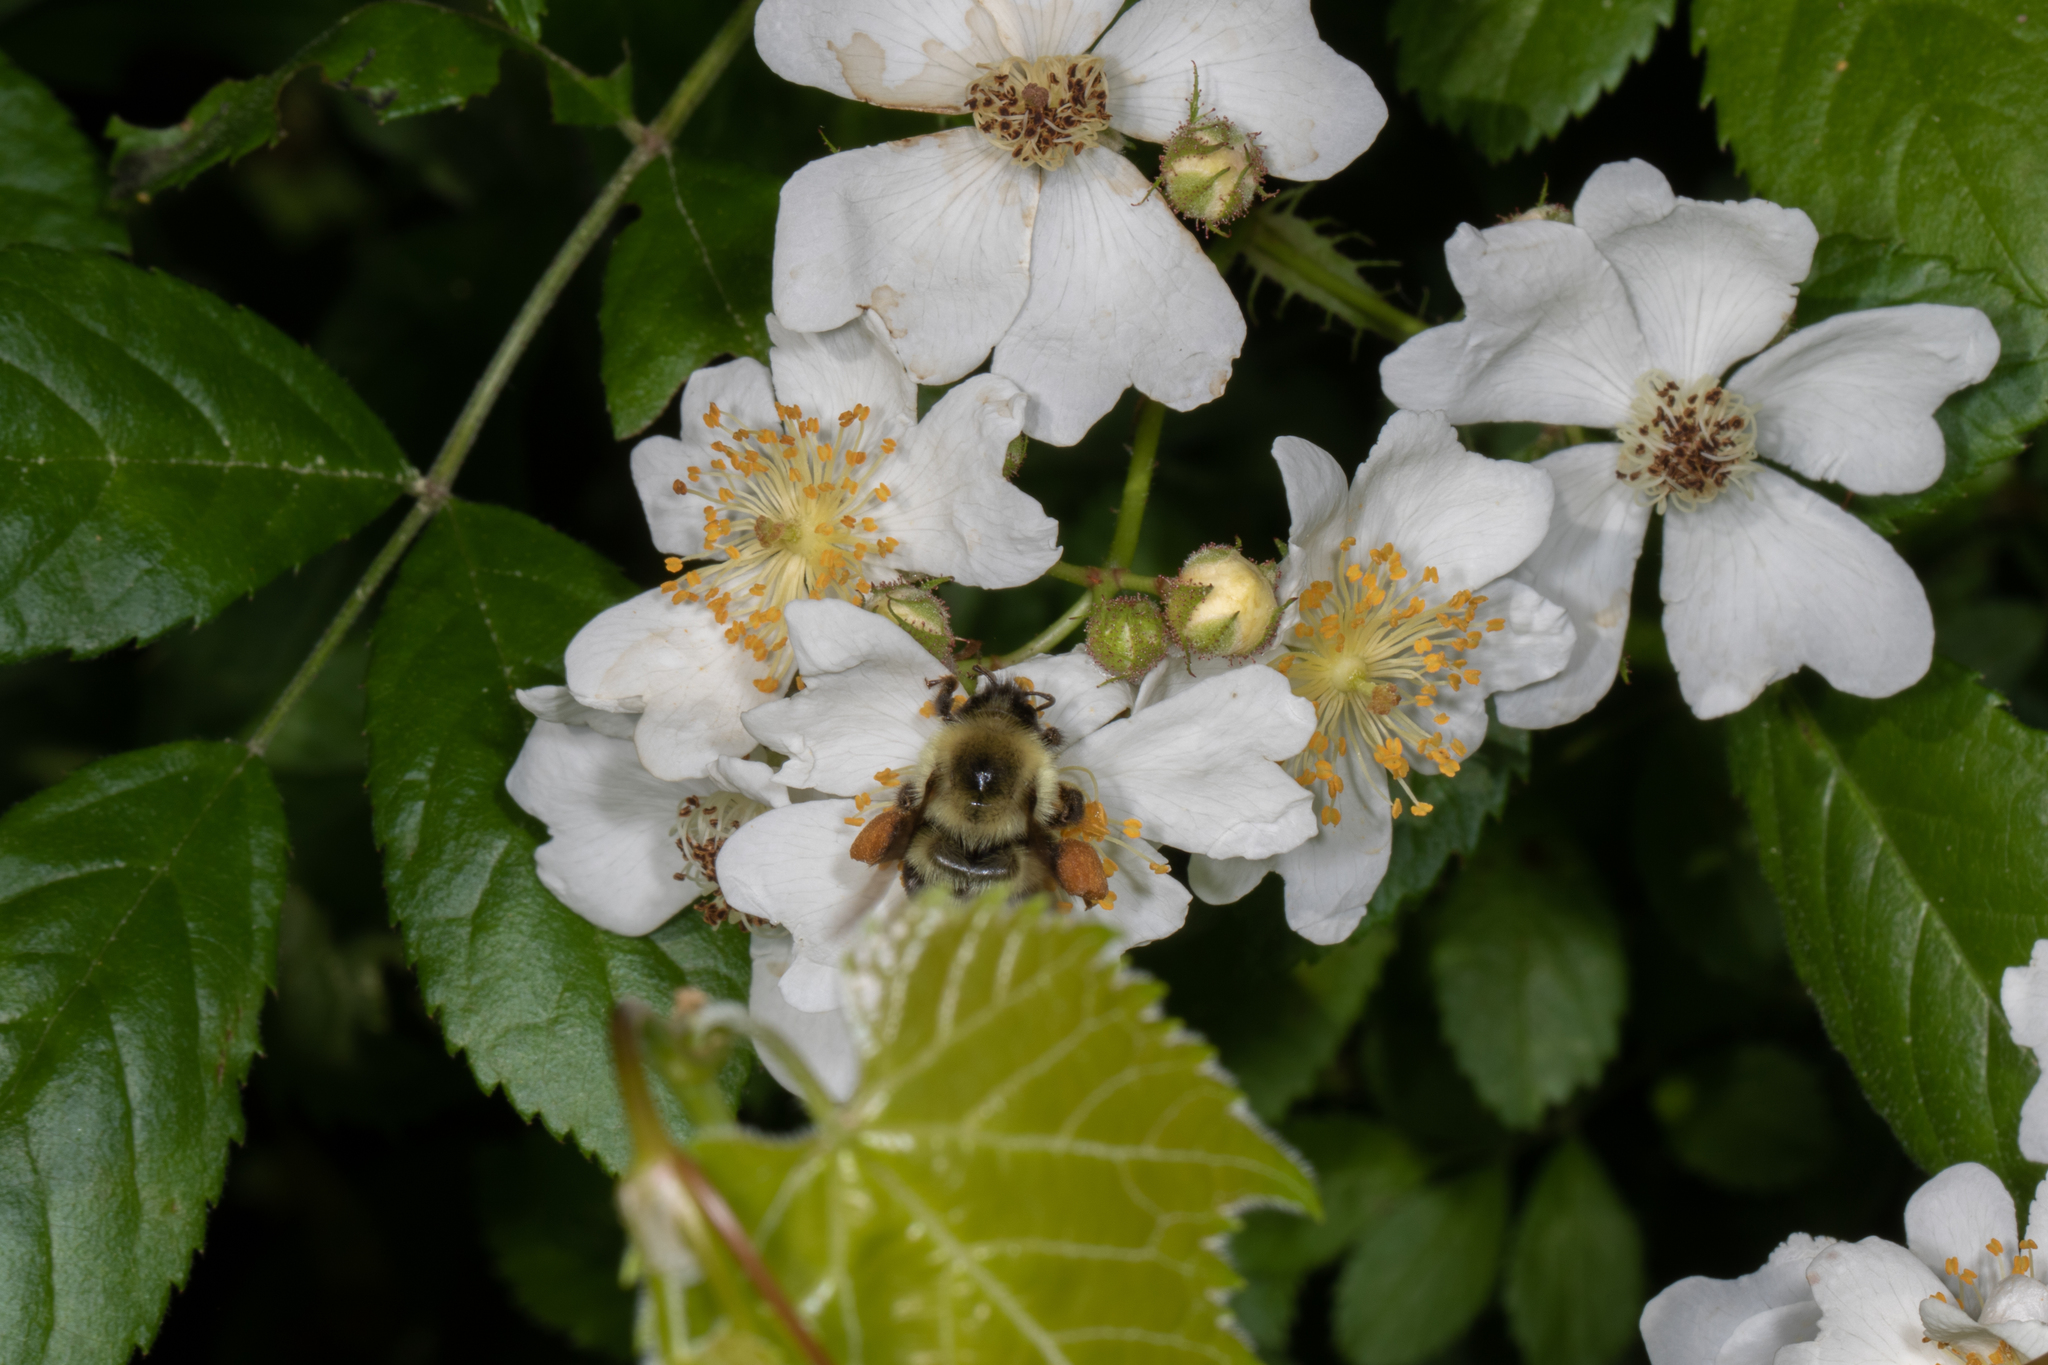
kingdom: Animalia
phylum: Arthropoda
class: Insecta
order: Hymenoptera
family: Apidae
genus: Bombus
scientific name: Bombus bimaculatus
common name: Two-spotted bumble bee
